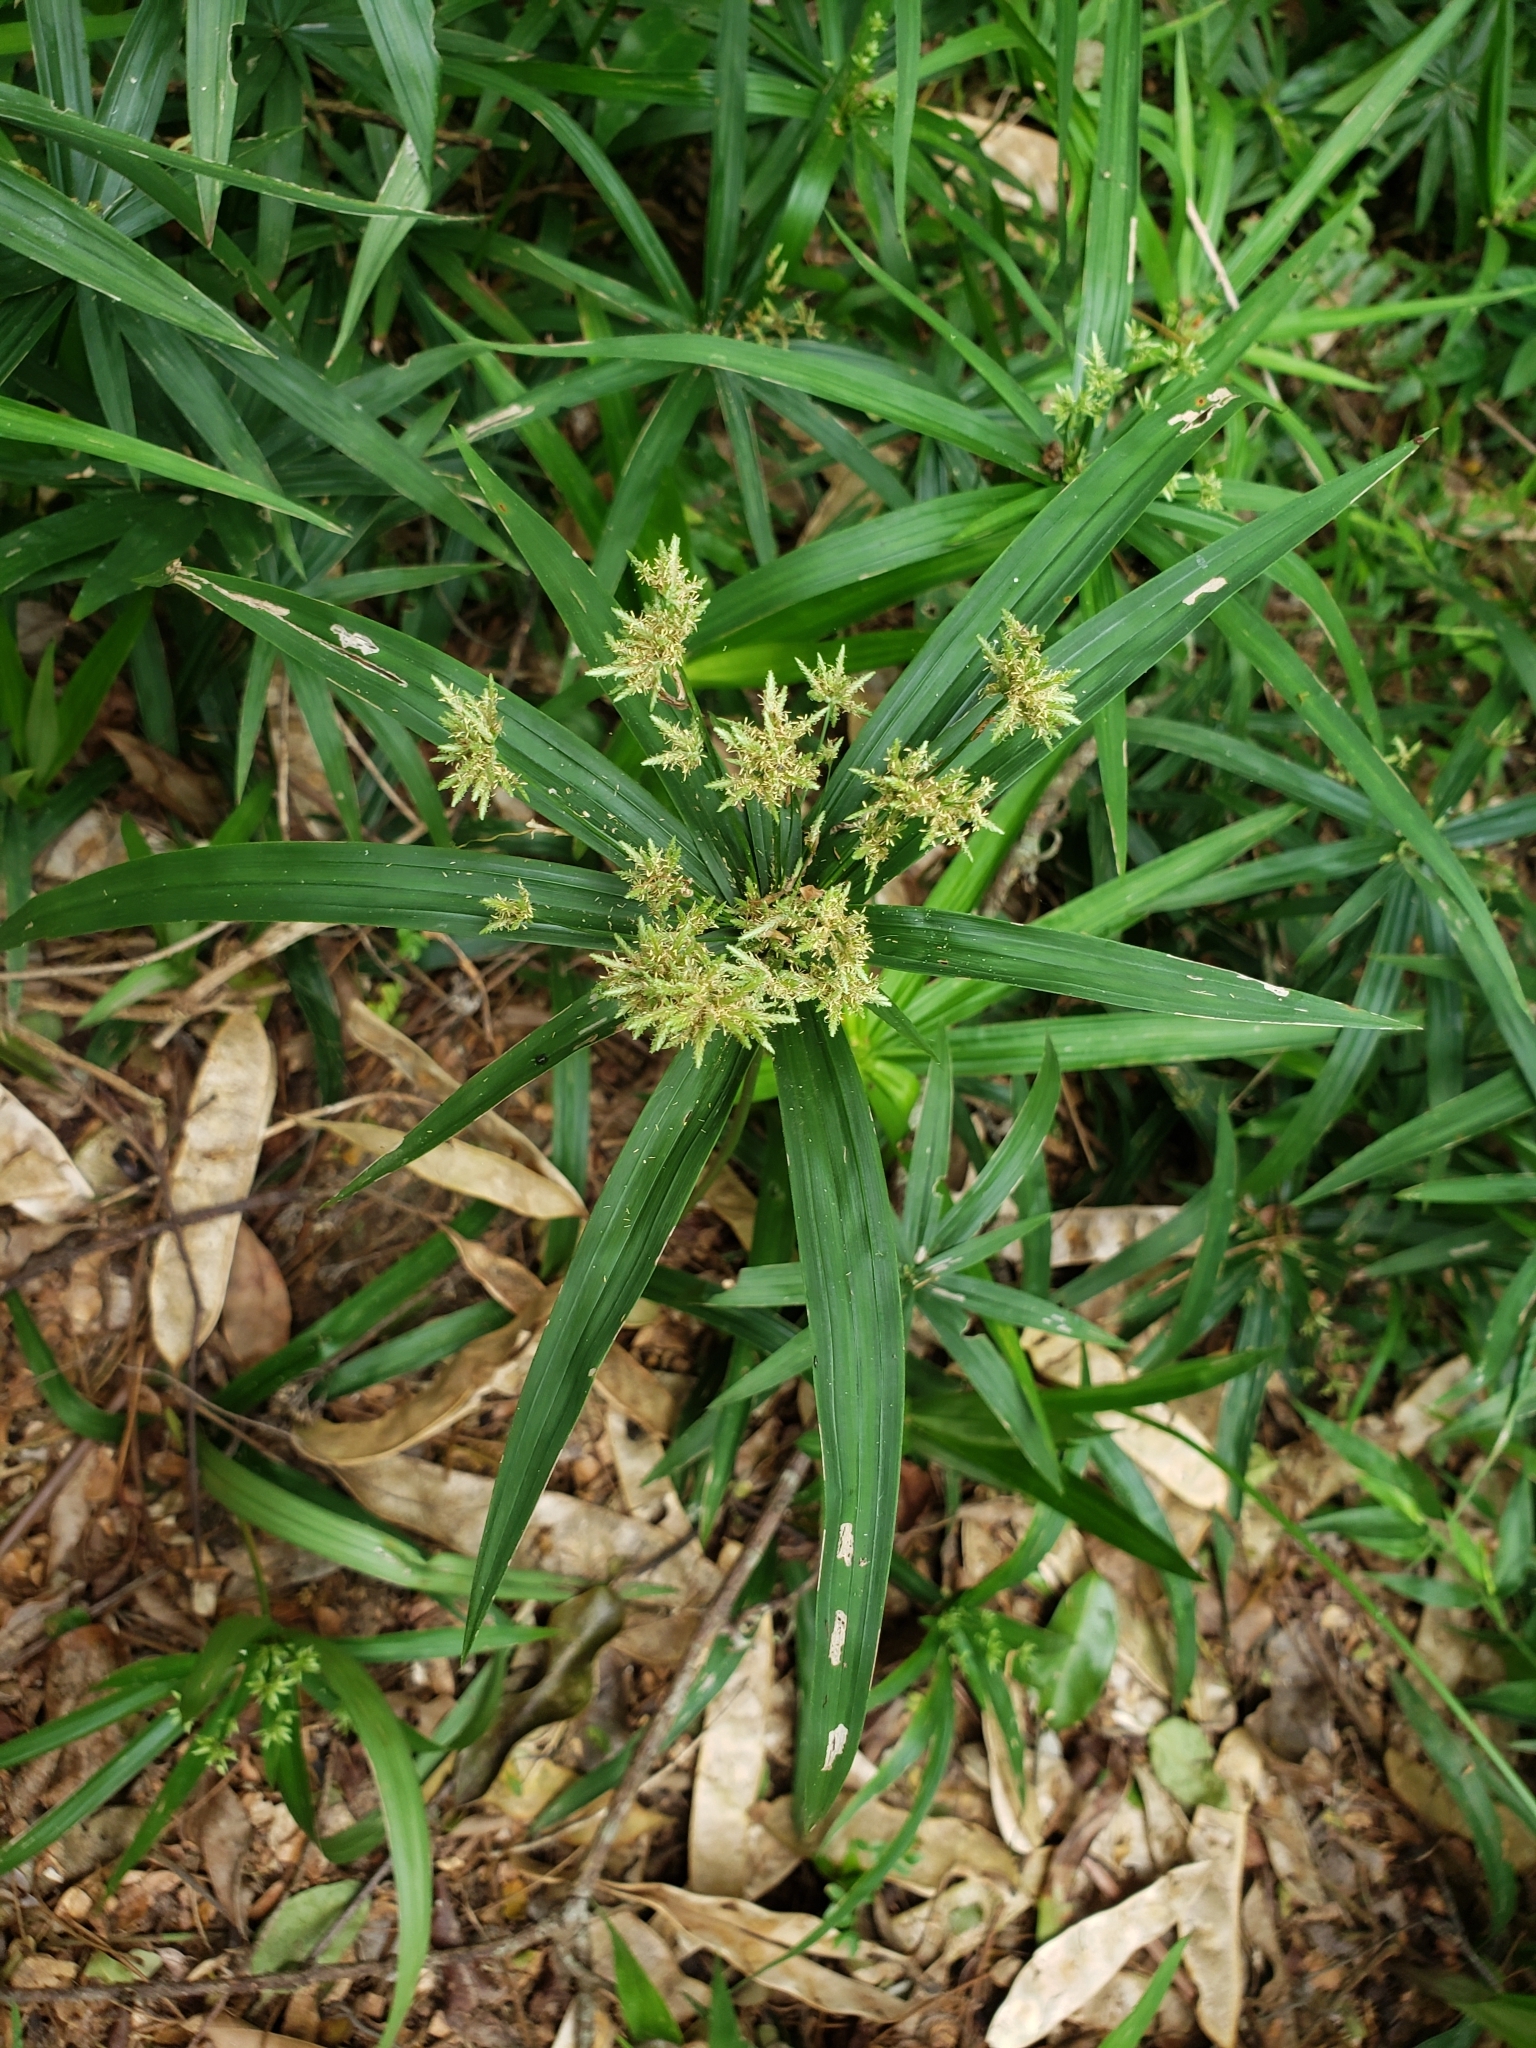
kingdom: Plantae
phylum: Tracheophyta
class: Liliopsida
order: Poales
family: Cyperaceae
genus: Cyperus
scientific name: Cyperus albostriatus
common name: Dwarf umbrella-grass
